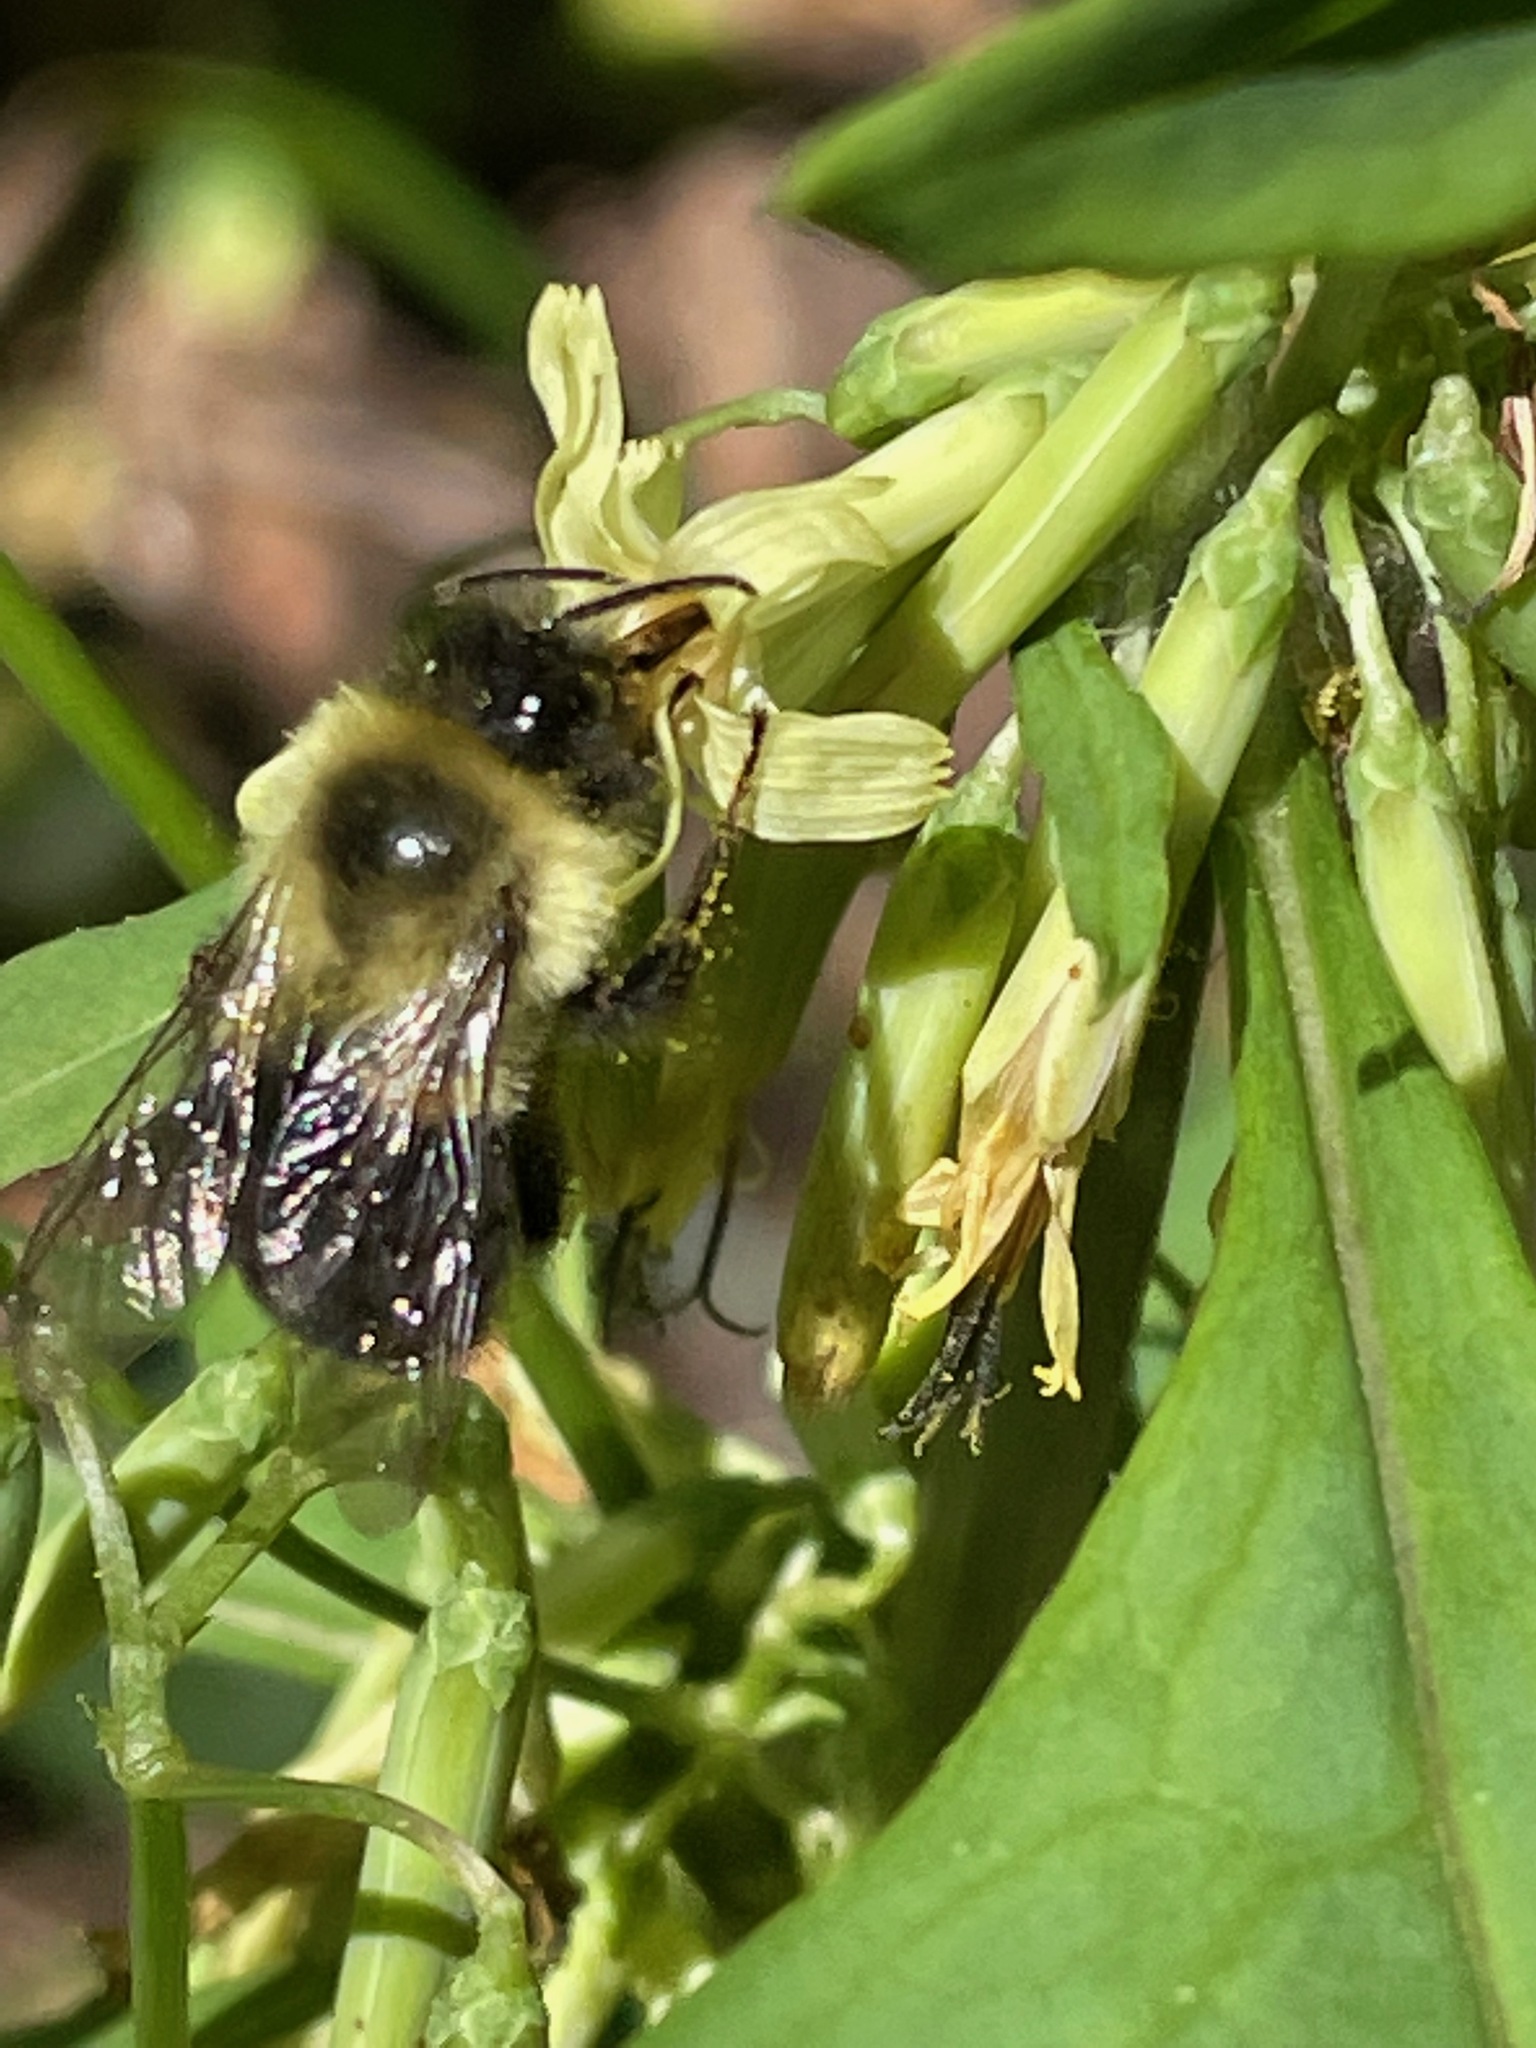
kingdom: Animalia
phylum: Arthropoda
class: Insecta
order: Hymenoptera
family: Apidae
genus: Bombus
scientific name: Bombus impatiens
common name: Common eastern bumble bee
